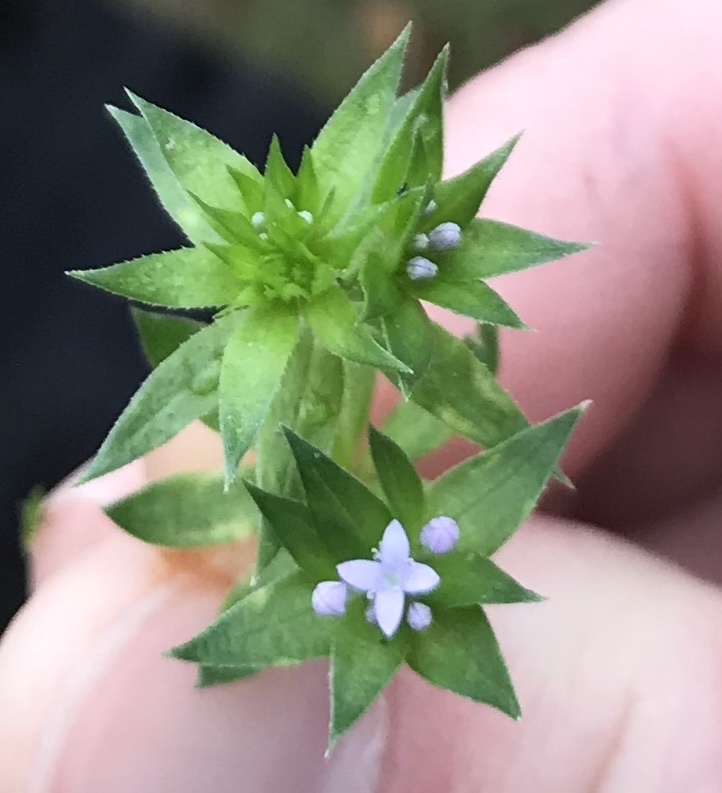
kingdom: Plantae
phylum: Tracheophyta
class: Magnoliopsida
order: Gentianales
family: Rubiaceae
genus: Sherardia
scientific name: Sherardia arvensis
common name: Field madder
